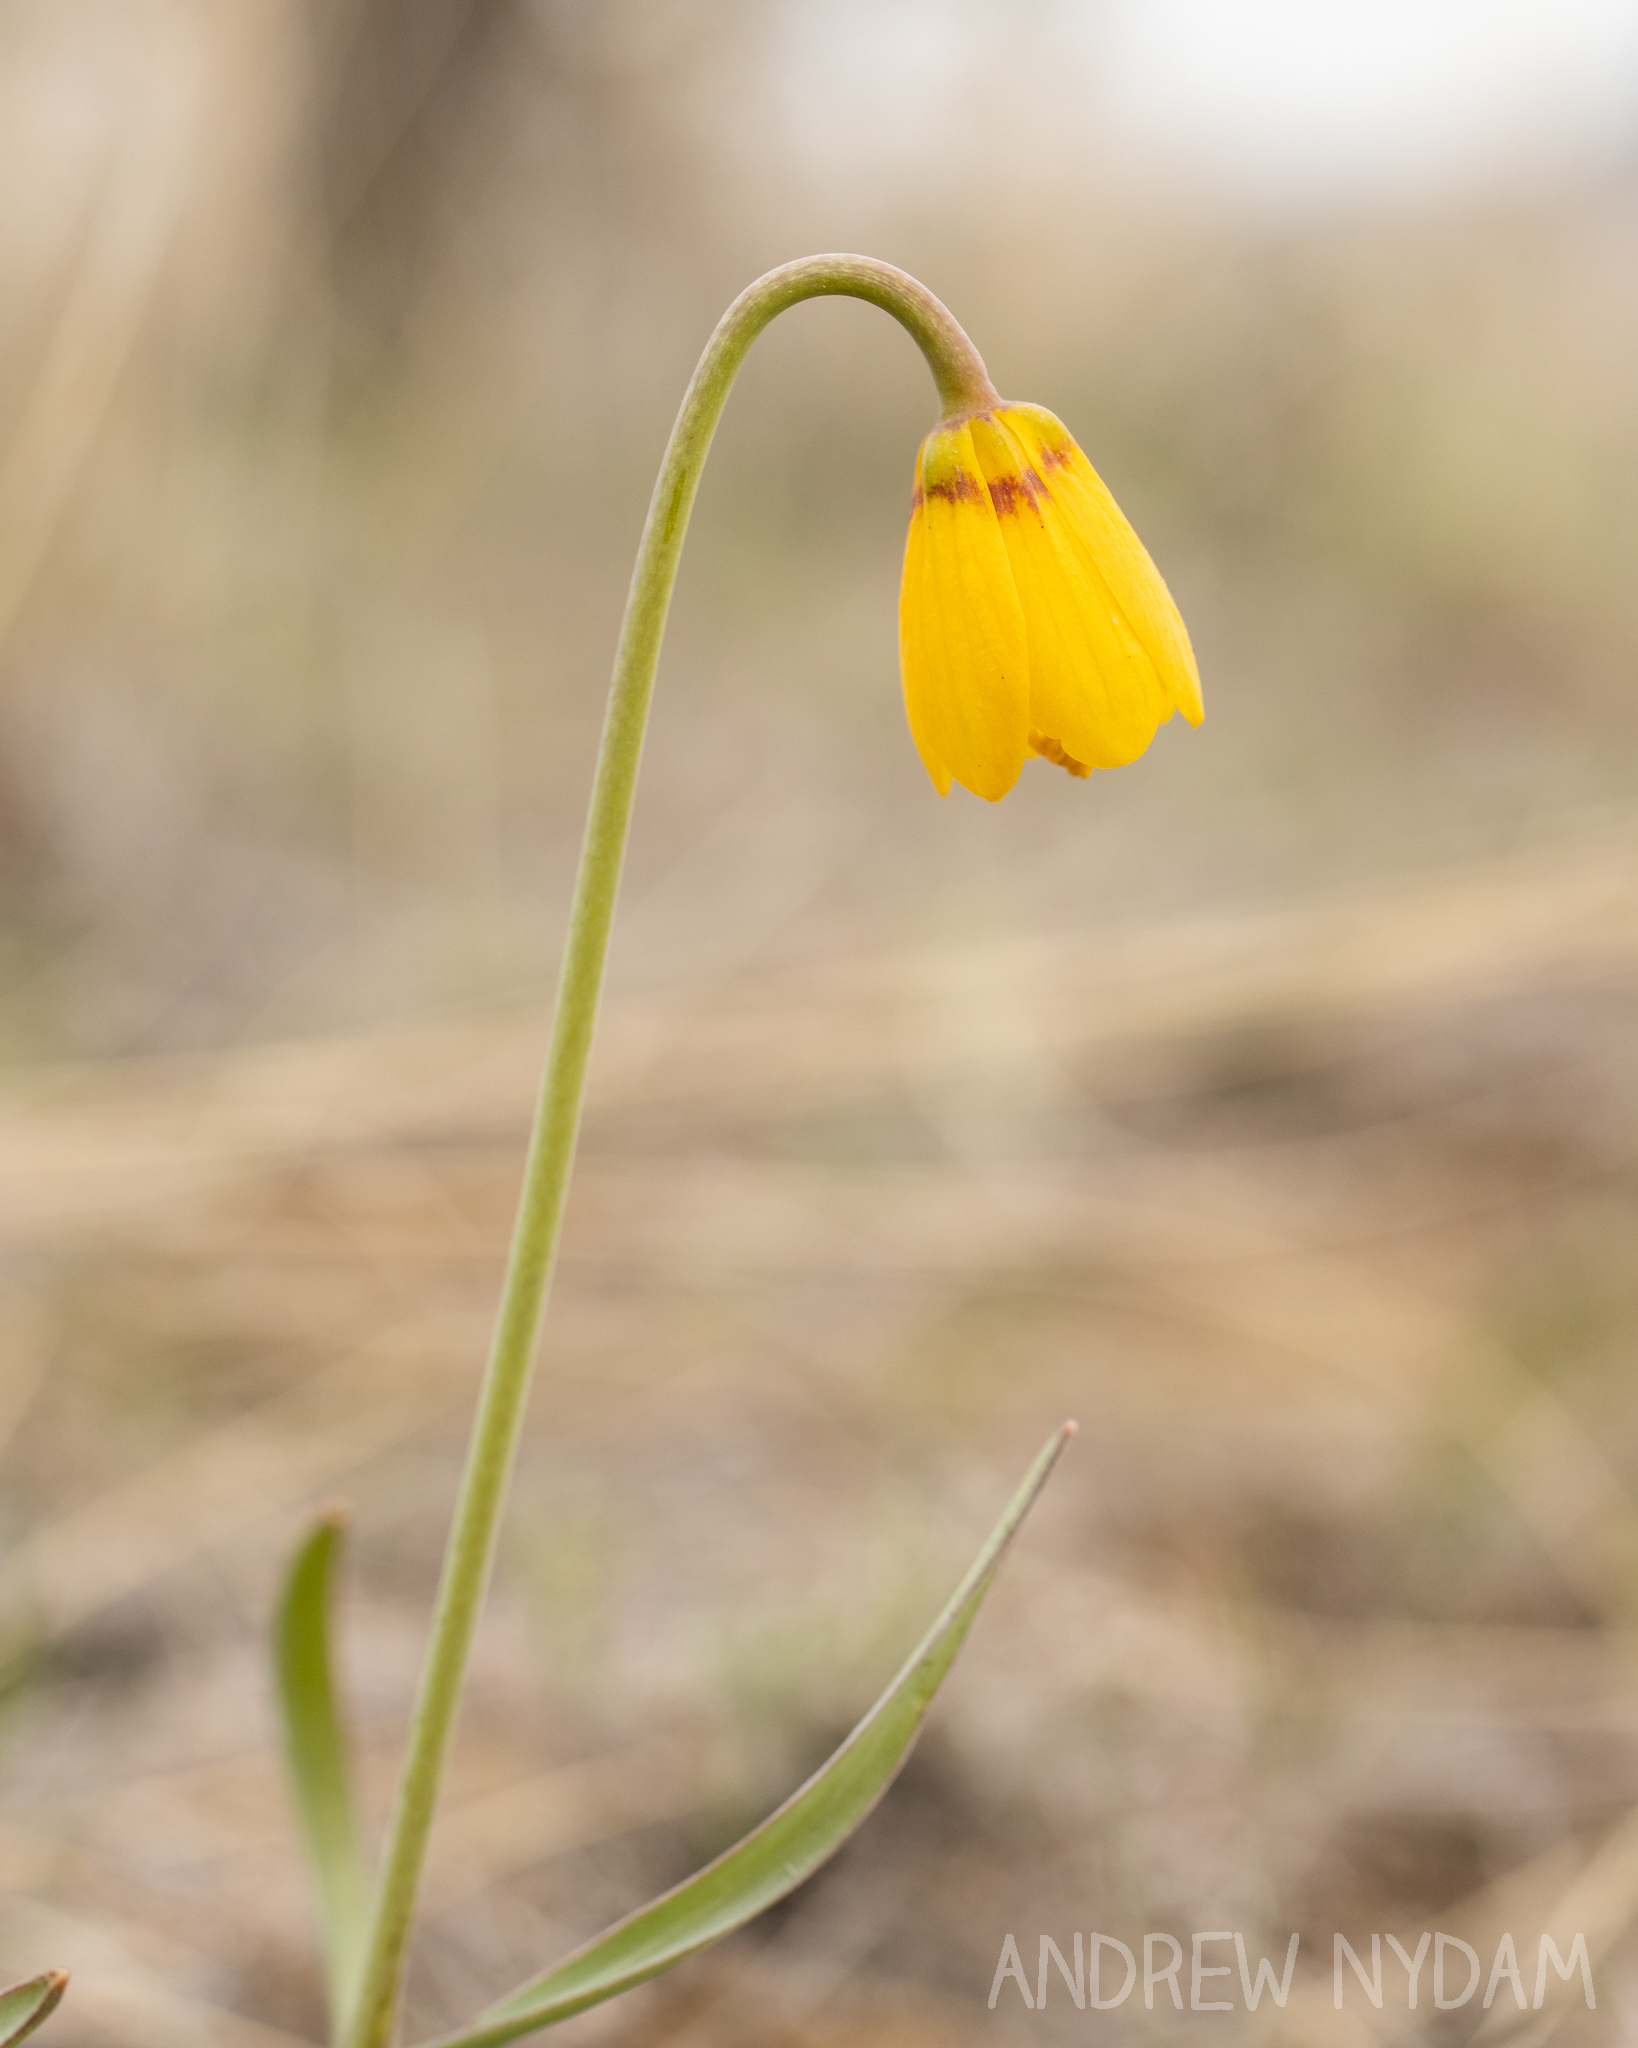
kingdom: Plantae
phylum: Tracheophyta
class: Liliopsida
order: Liliales
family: Liliaceae
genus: Fritillaria
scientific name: Fritillaria pudica
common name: Yellow fritillary
